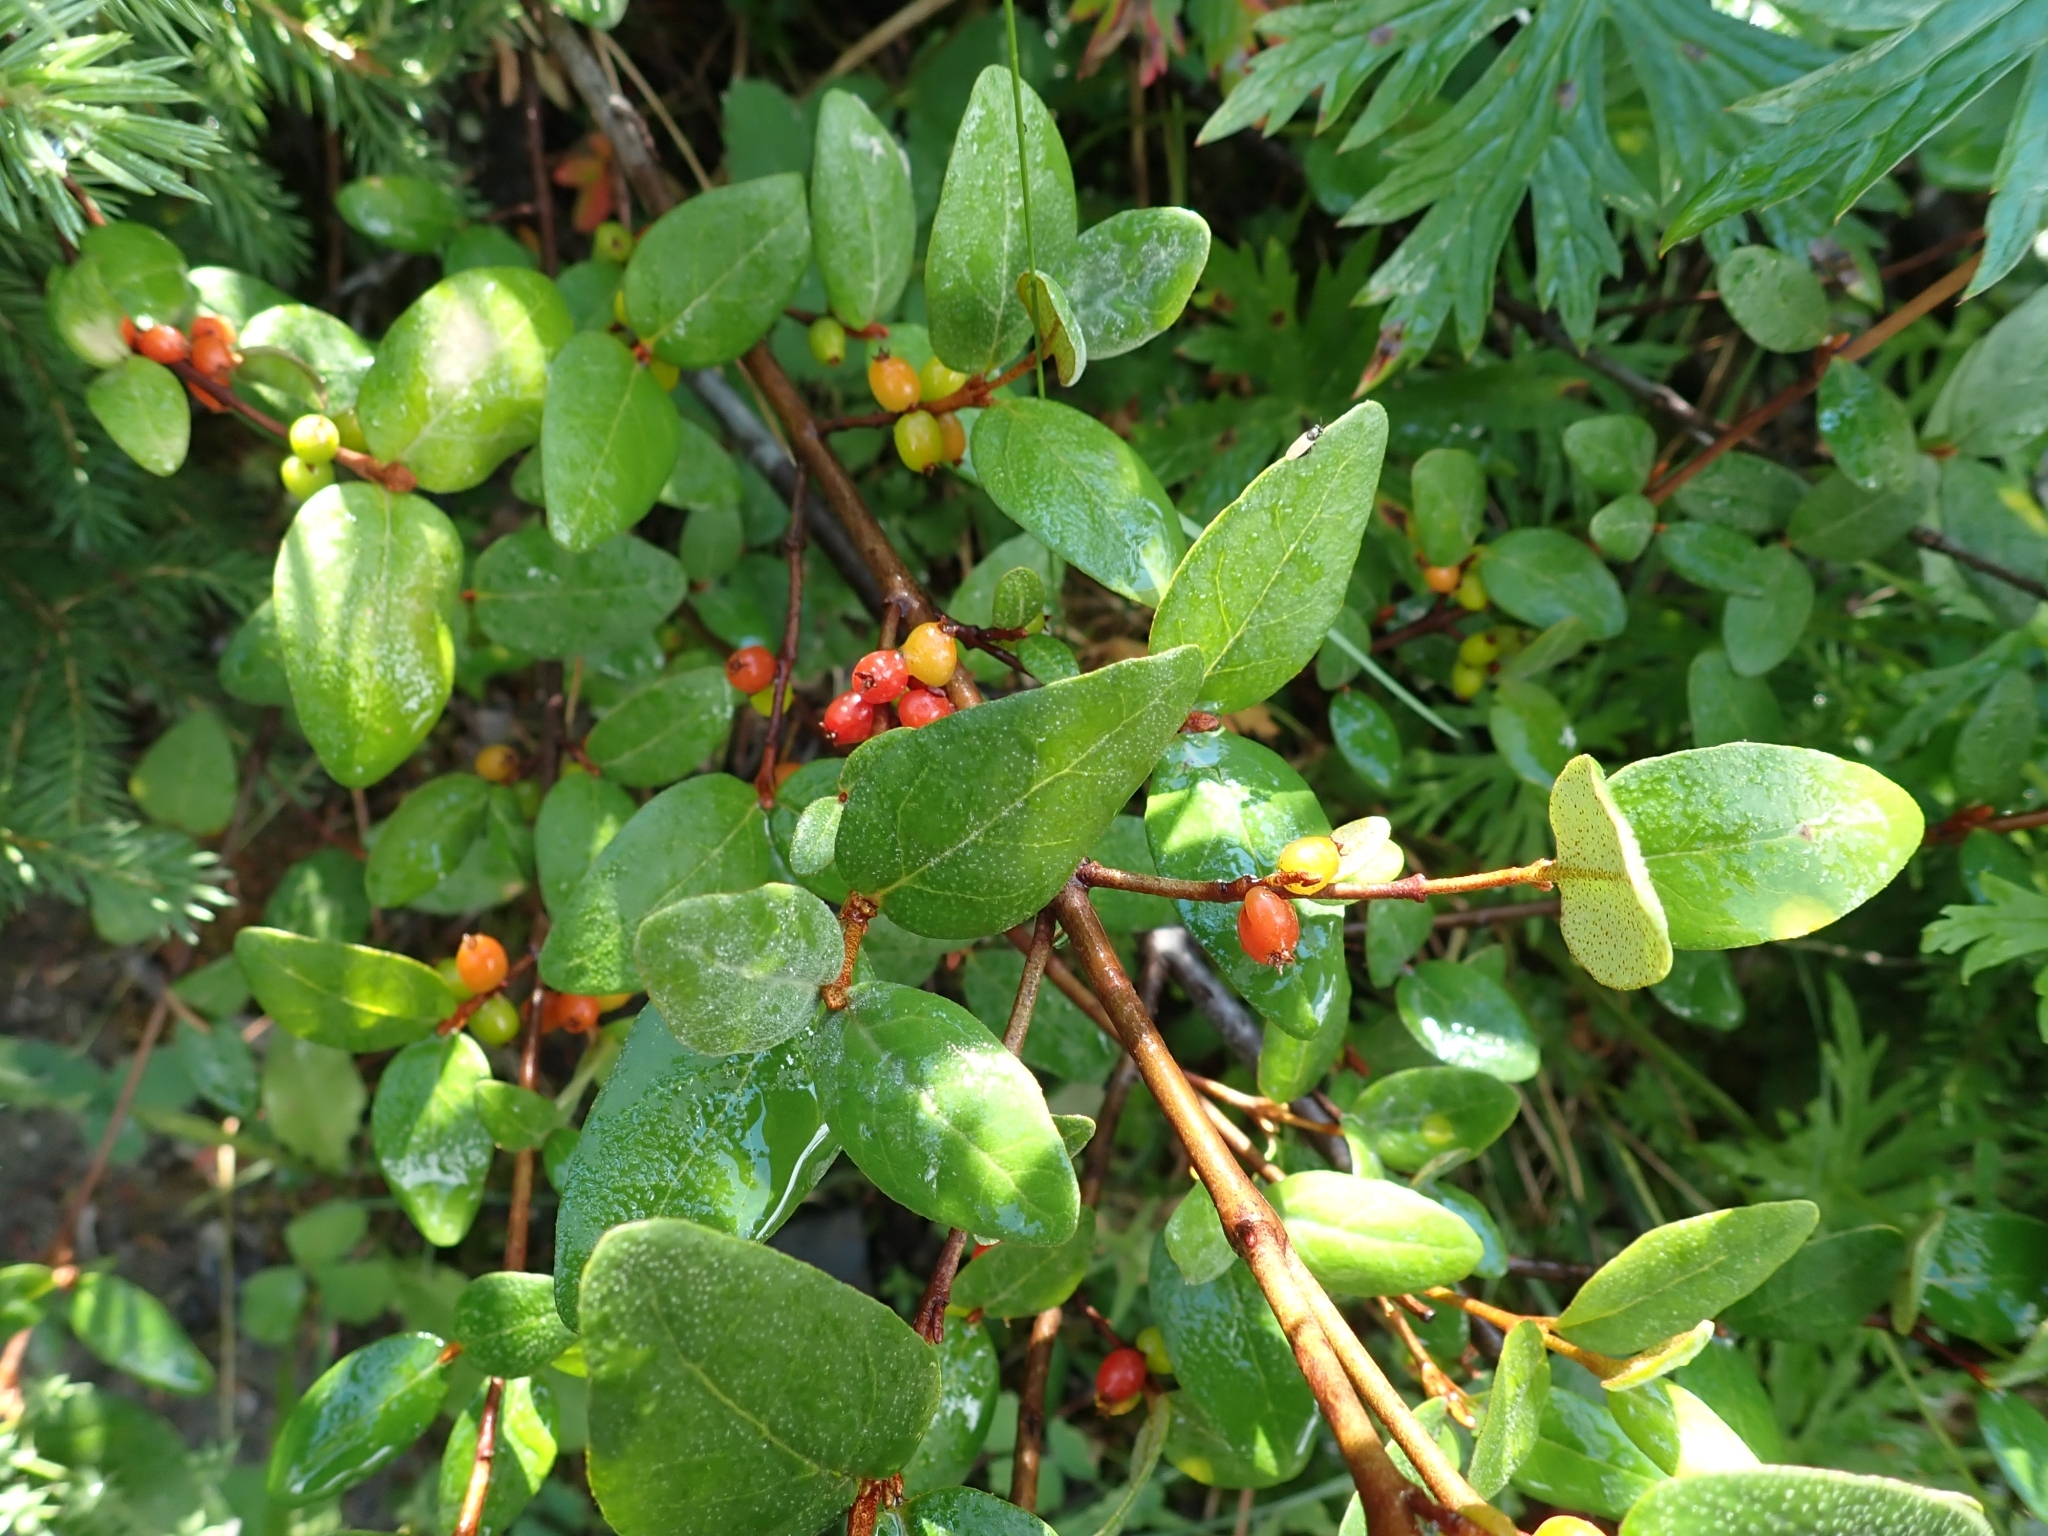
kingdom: Plantae
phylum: Tracheophyta
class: Magnoliopsida
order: Rosales
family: Elaeagnaceae
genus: Shepherdia
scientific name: Shepherdia canadensis
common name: Soapberry
